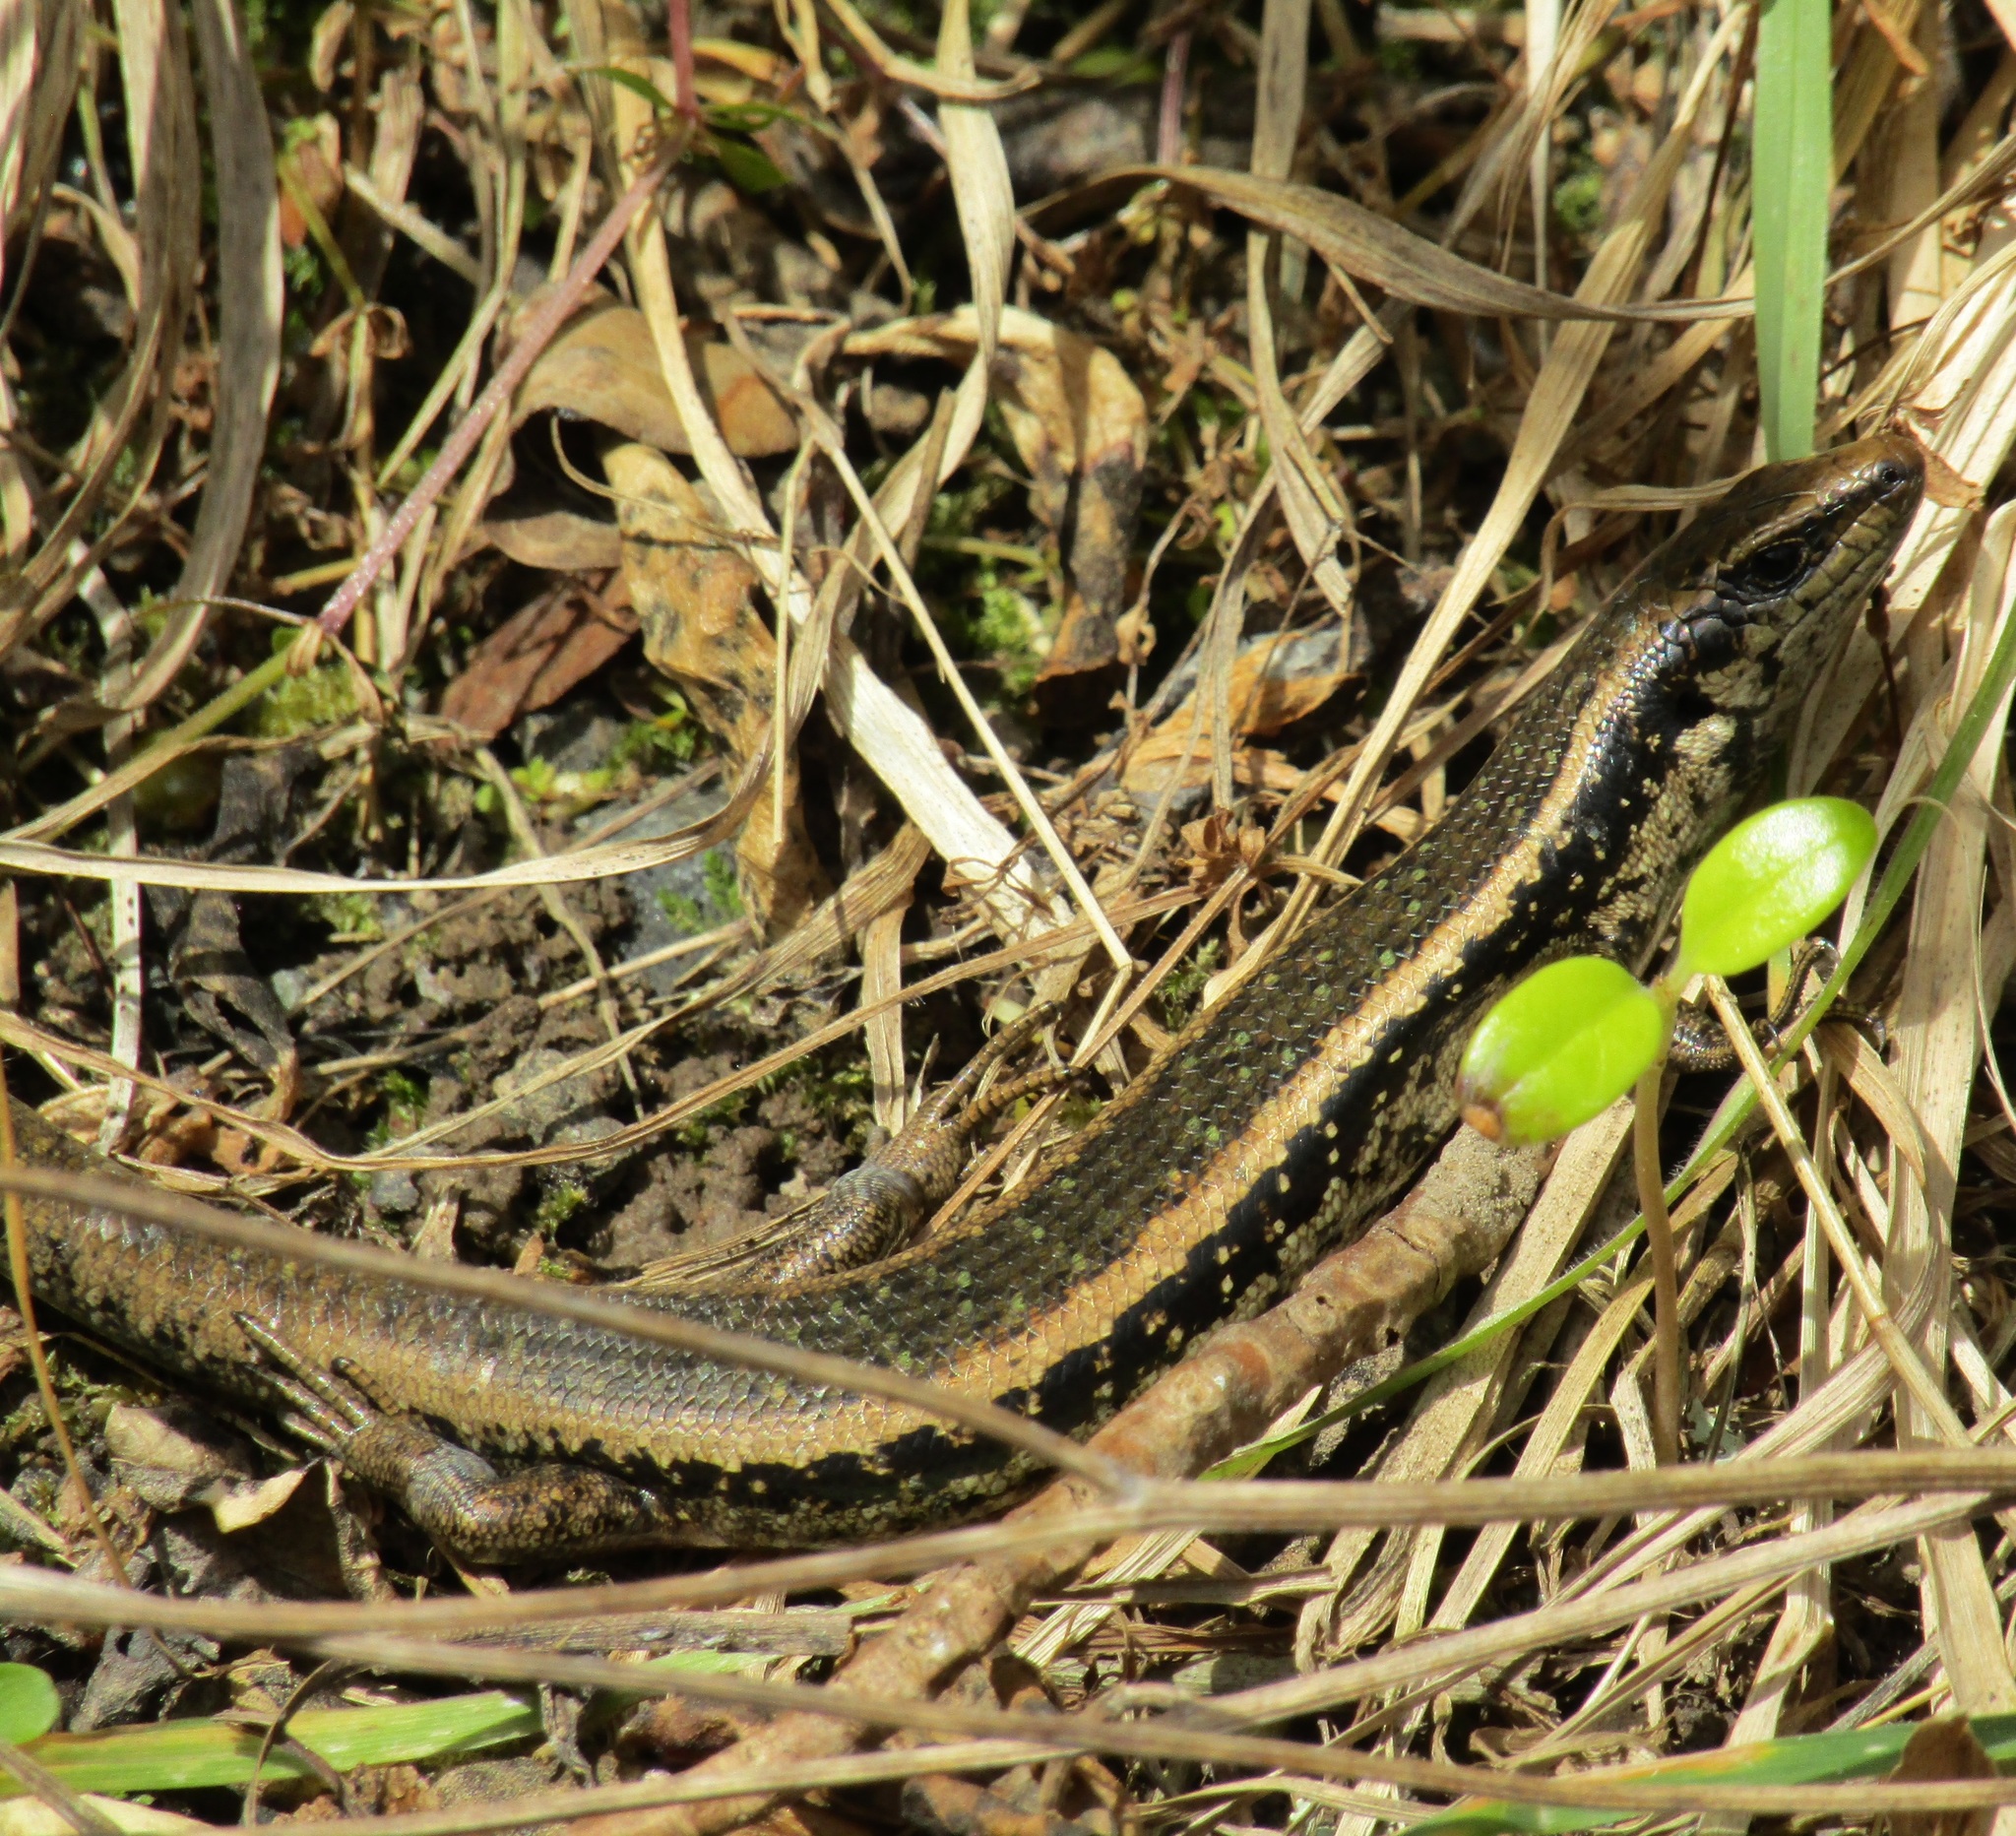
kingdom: Animalia
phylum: Chordata
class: Squamata
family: Scincidae
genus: Oligosoma
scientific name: Oligosoma kokowai
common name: Northern spotted skink
